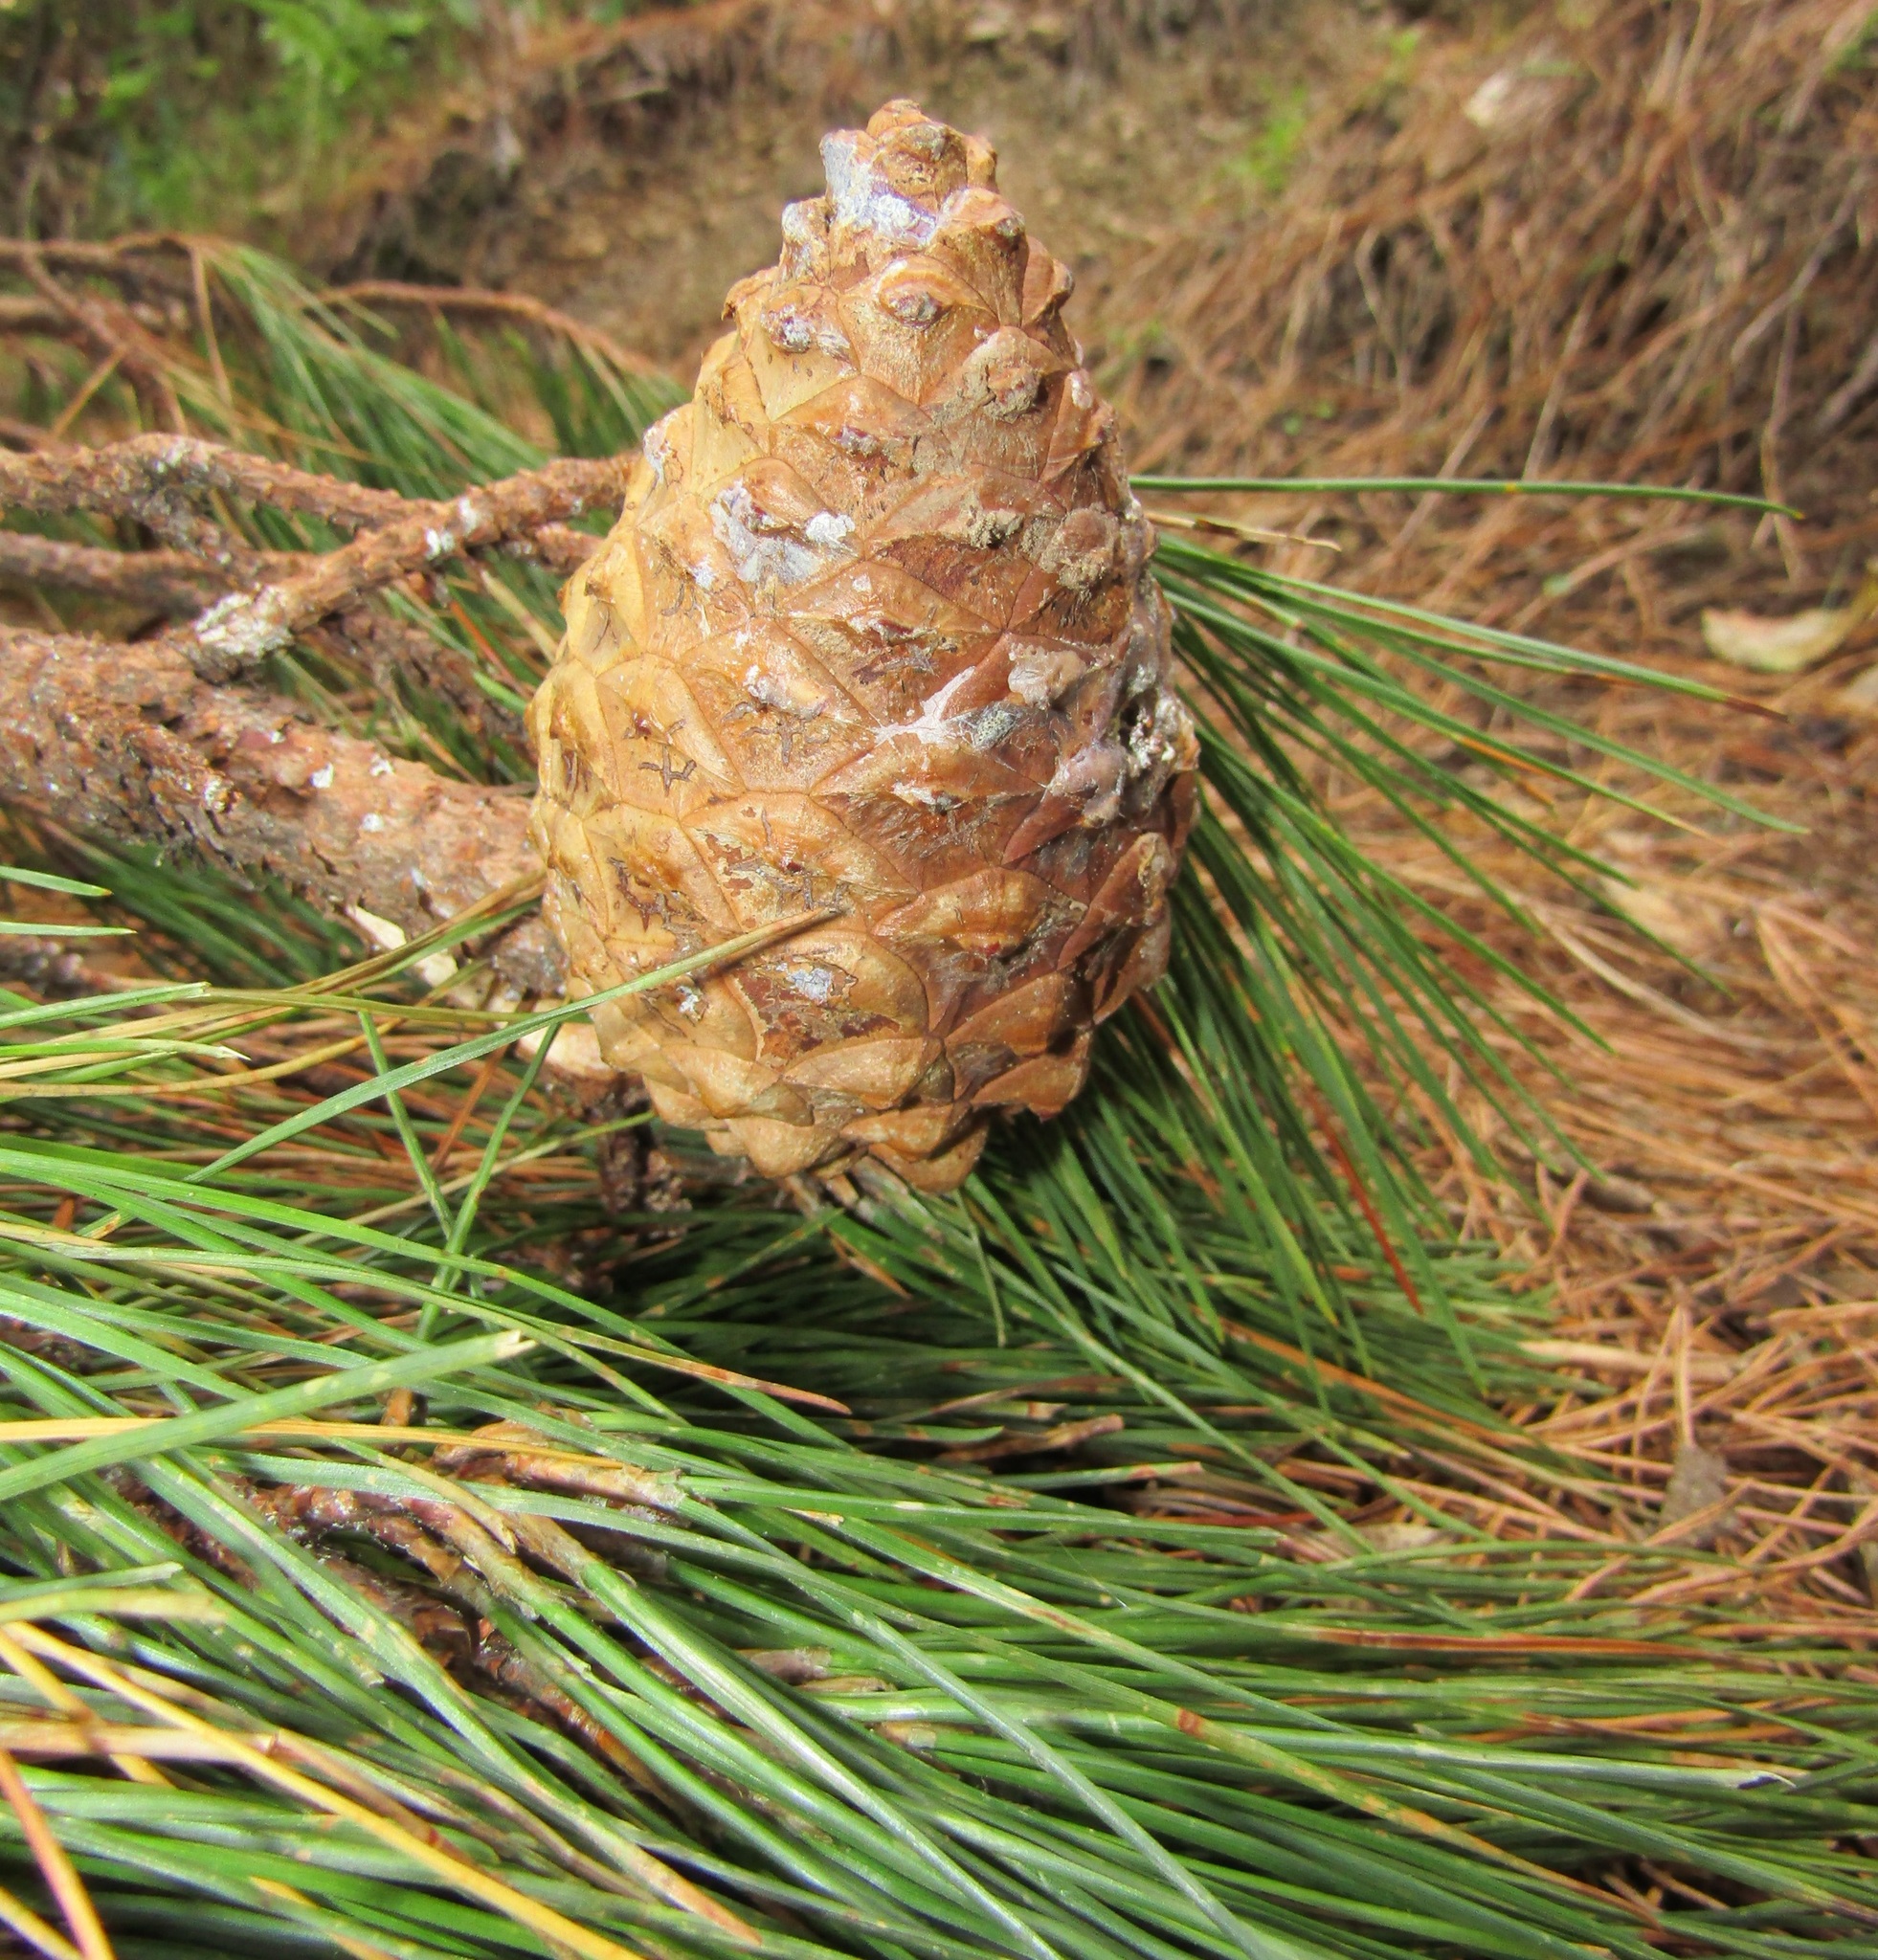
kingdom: Plantae
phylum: Tracheophyta
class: Pinopsida
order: Pinales
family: Pinaceae
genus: Pinus
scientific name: Pinus radiata
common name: Monterey pine
